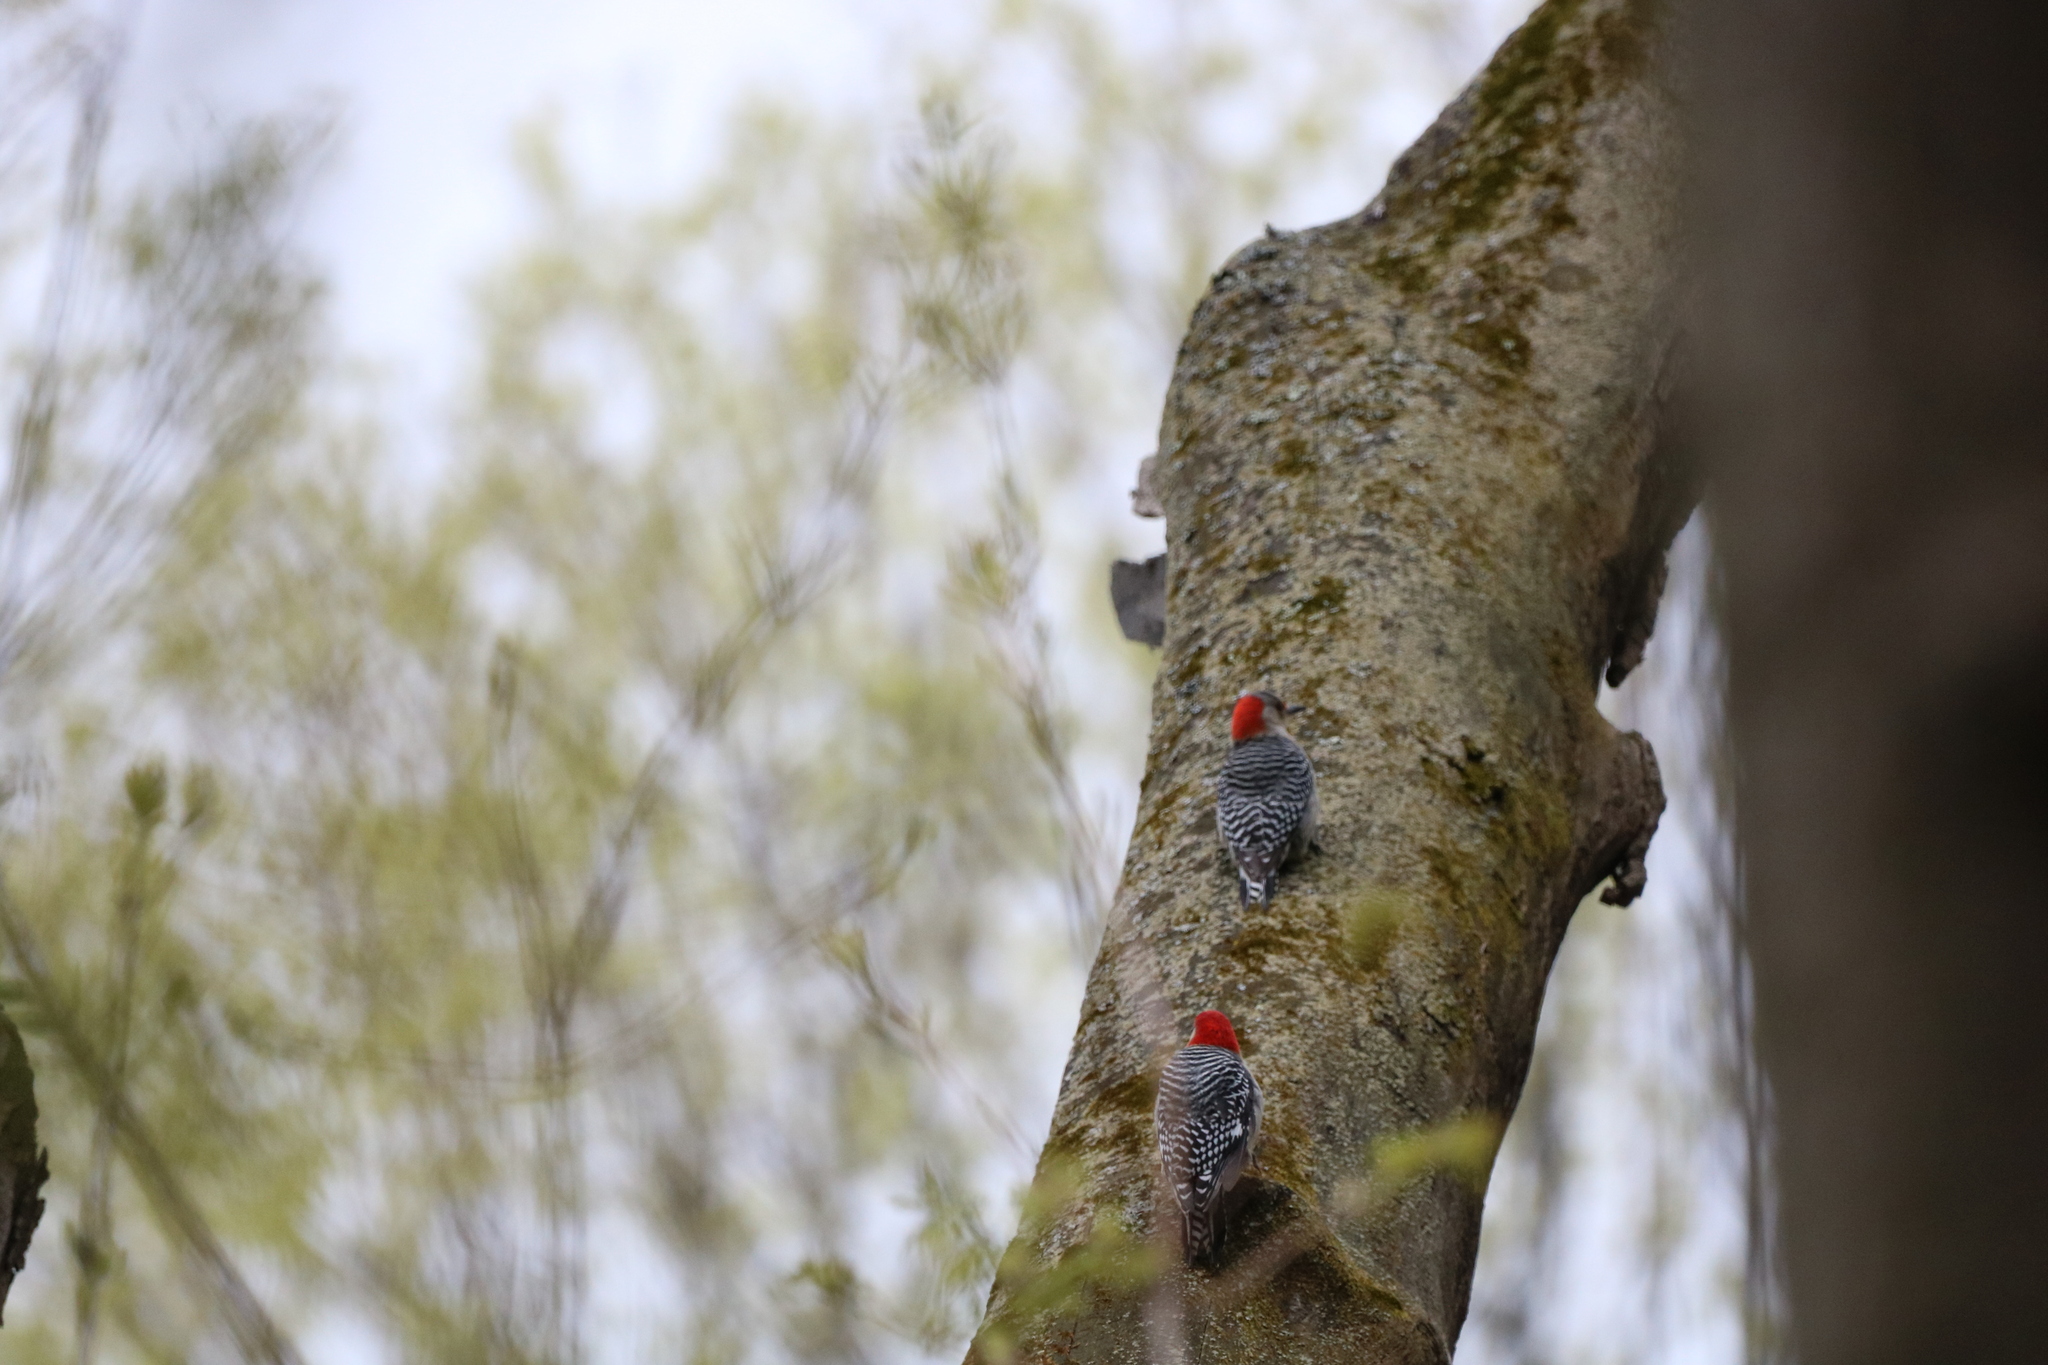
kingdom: Animalia
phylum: Chordata
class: Aves
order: Piciformes
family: Picidae
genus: Melanerpes
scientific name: Melanerpes carolinus
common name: Red-bellied woodpecker
